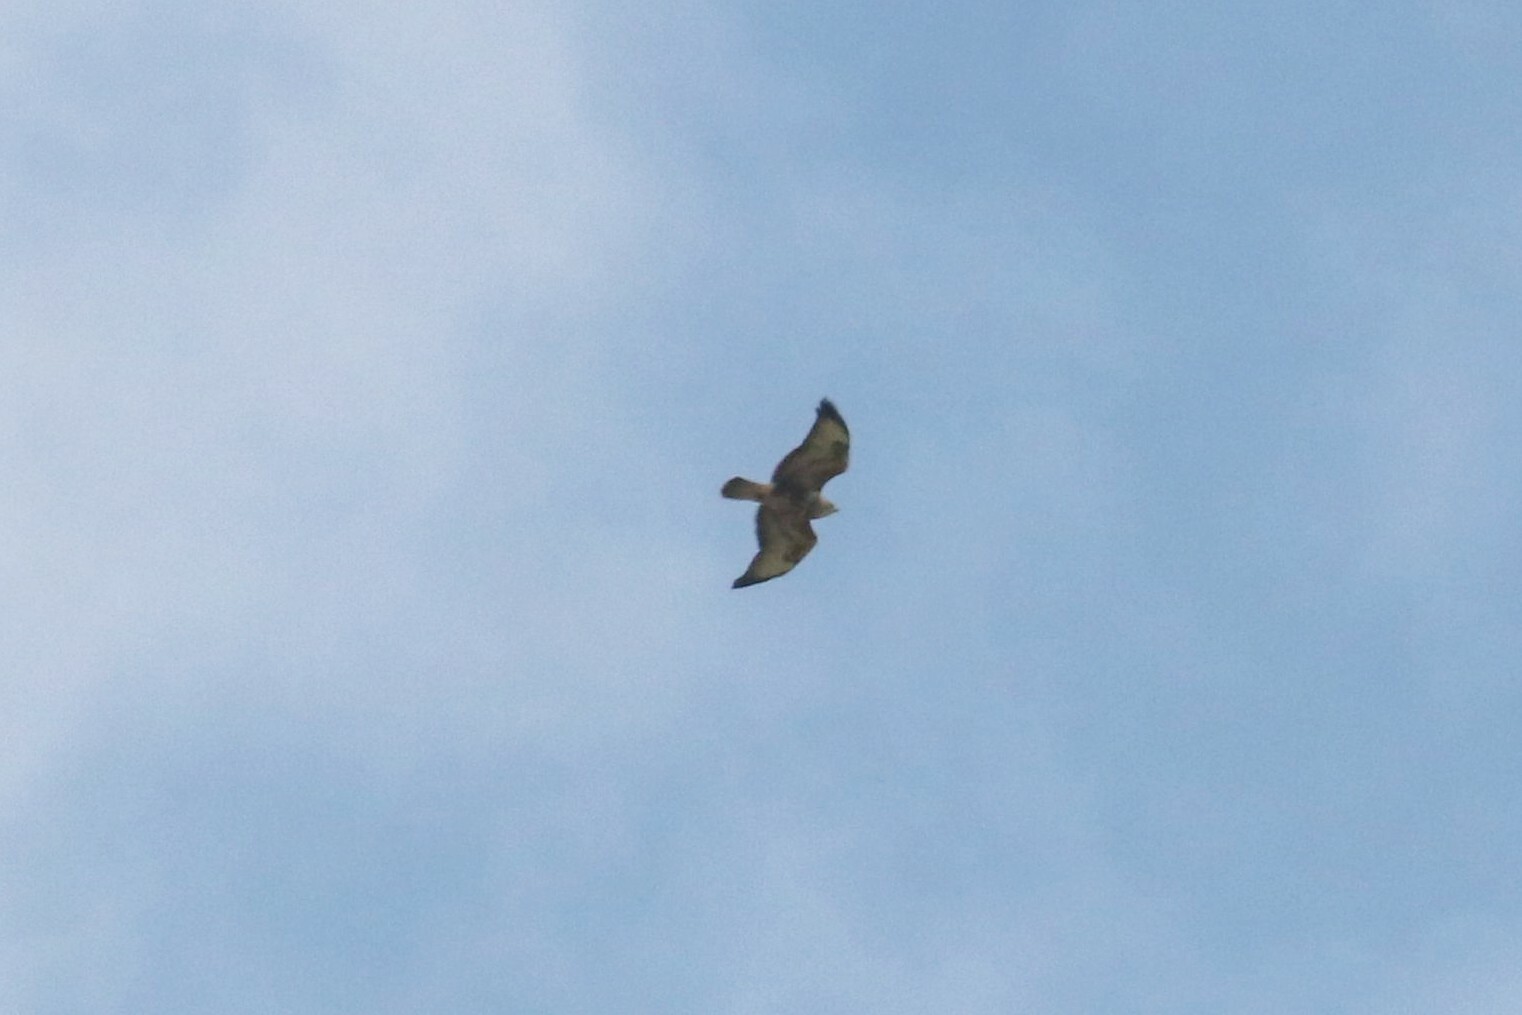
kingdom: Animalia
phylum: Chordata
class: Aves
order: Accipitriformes
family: Accipitridae
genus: Buteo
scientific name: Buteo buteo
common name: Common buzzard
